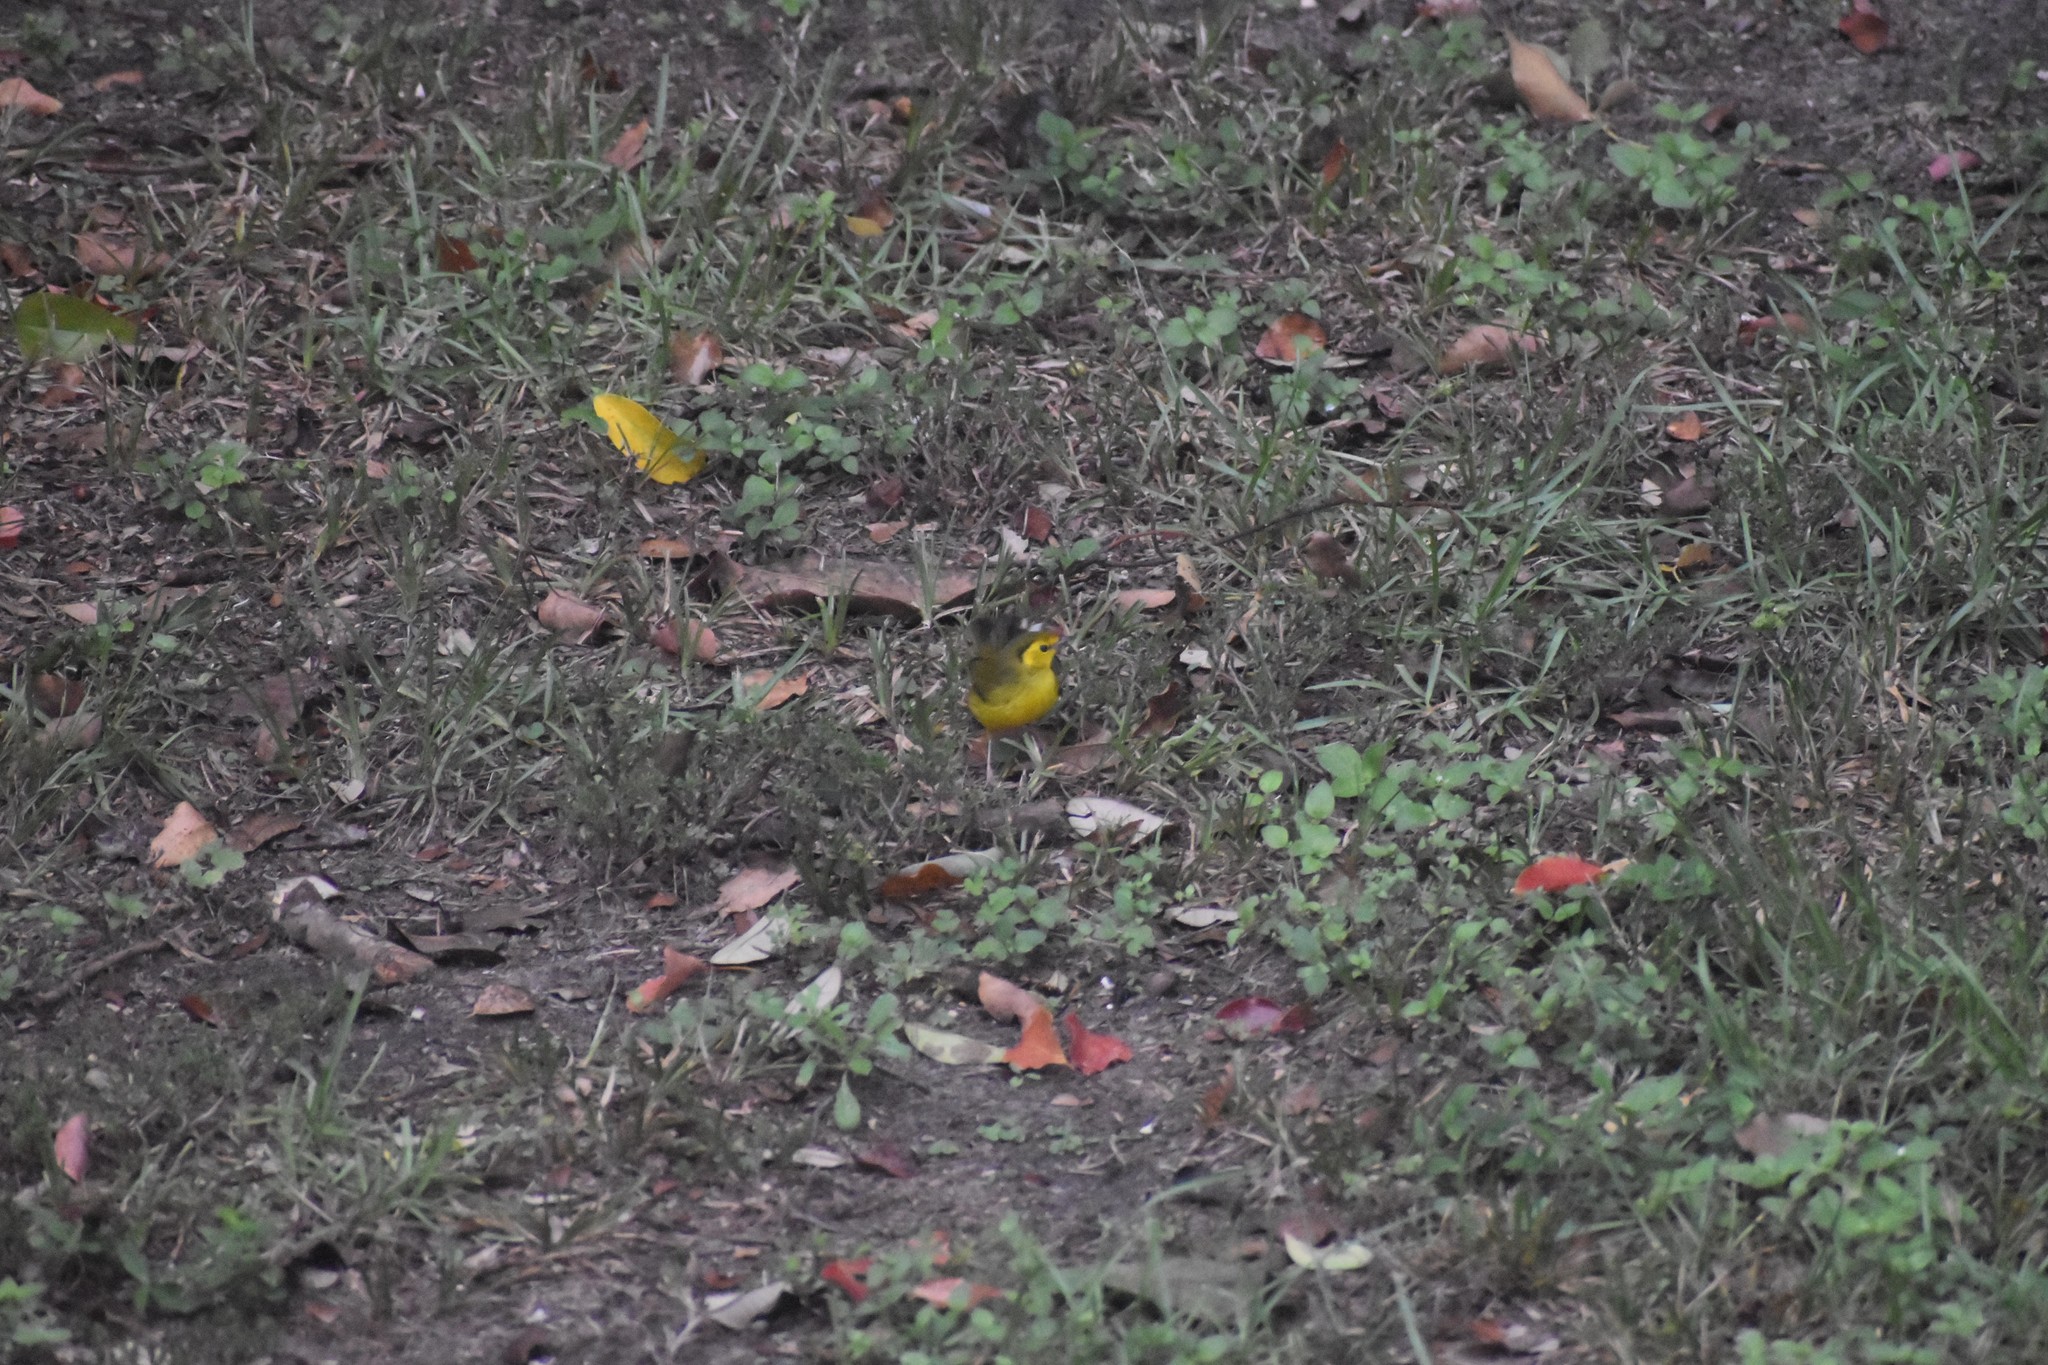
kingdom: Animalia
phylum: Chordata
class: Aves
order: Passeriformes
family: Parulidae
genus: Setophaga
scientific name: Setophaga citrina
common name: Hooded warbler
